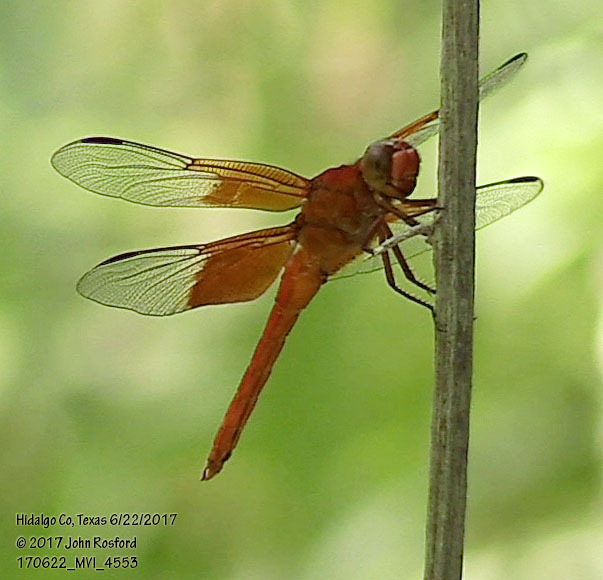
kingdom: Animalia
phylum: Arthropoda
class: Insecta
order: Odonata
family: Libellulidae
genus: Libellula
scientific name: Libellula gaigei
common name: Red-mantled skimmer
